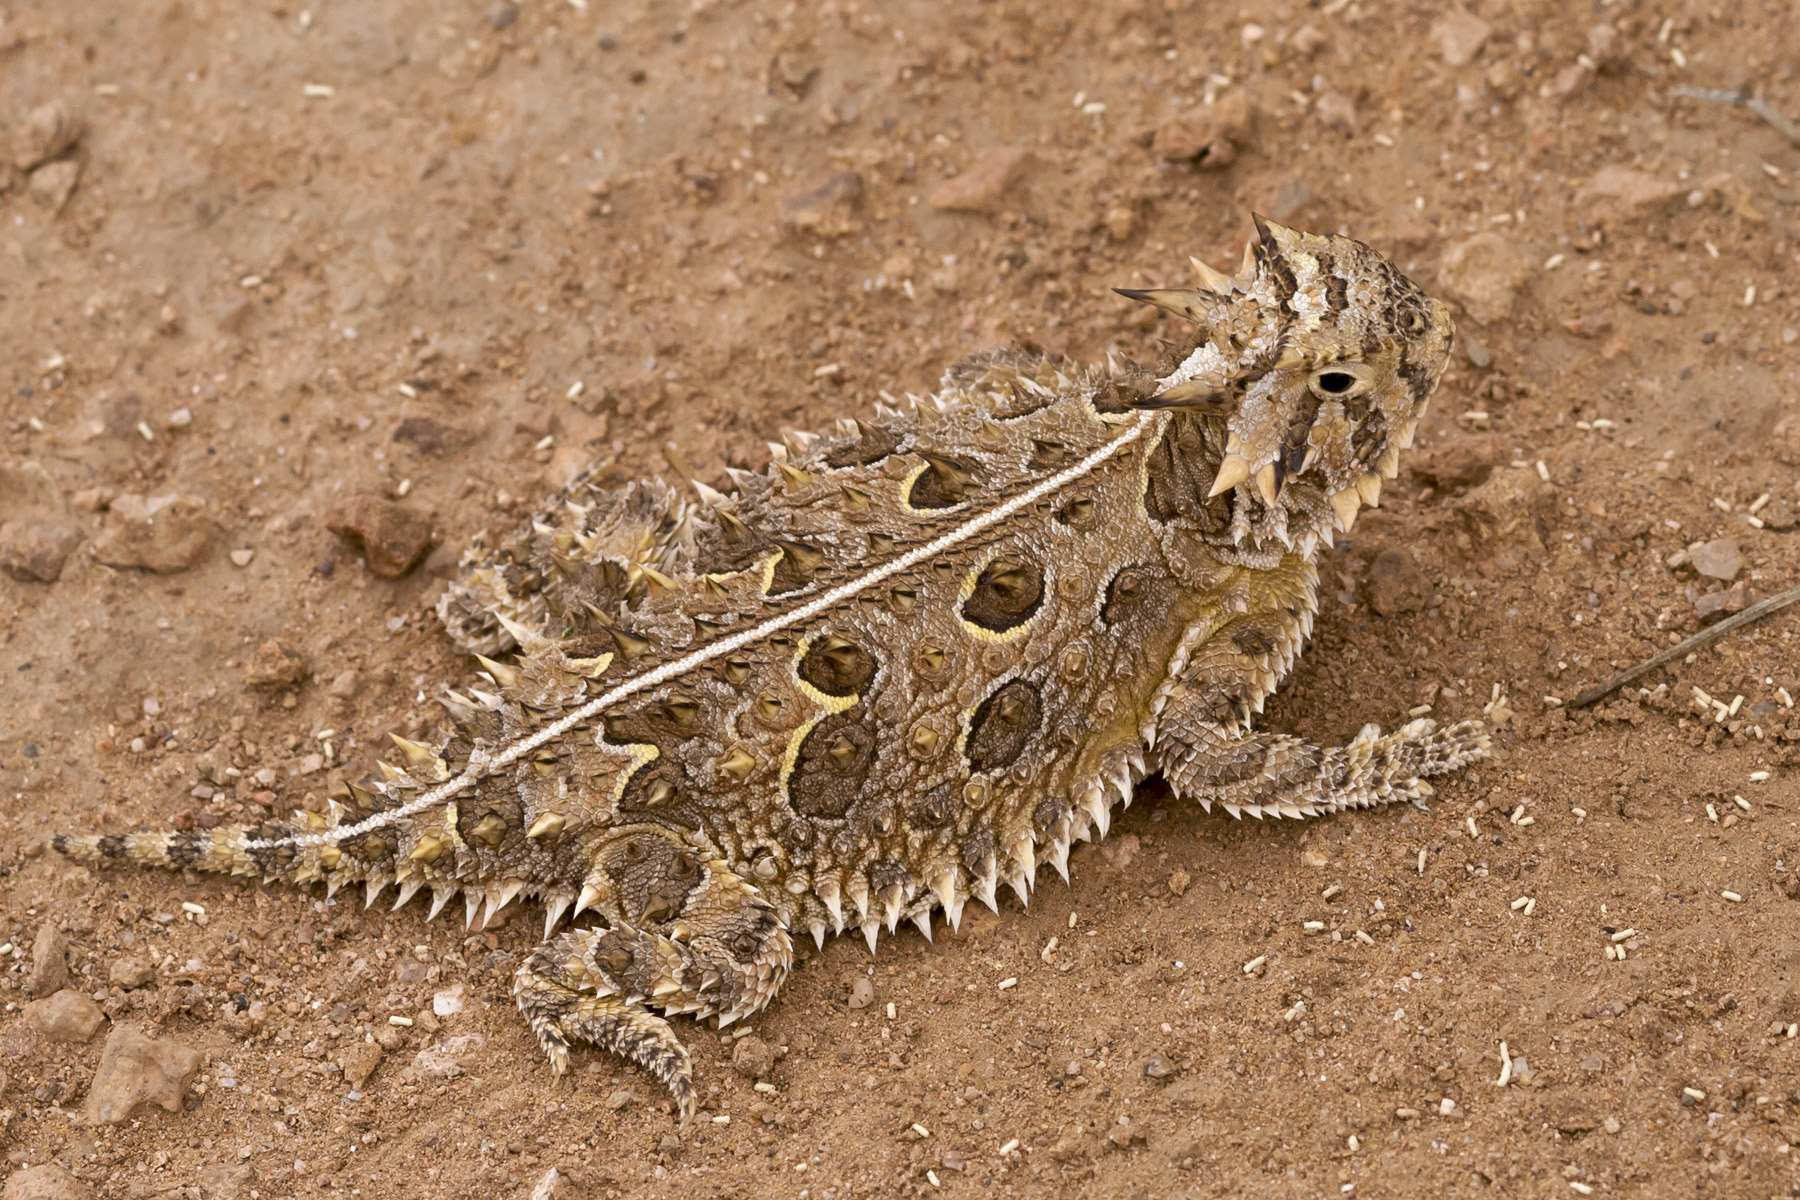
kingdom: Animalia
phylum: Chordata
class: Squamata
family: Phrynosomatidae
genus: Phrynosoma
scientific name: Phrynosoma cornutum
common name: Texas horned lizard
